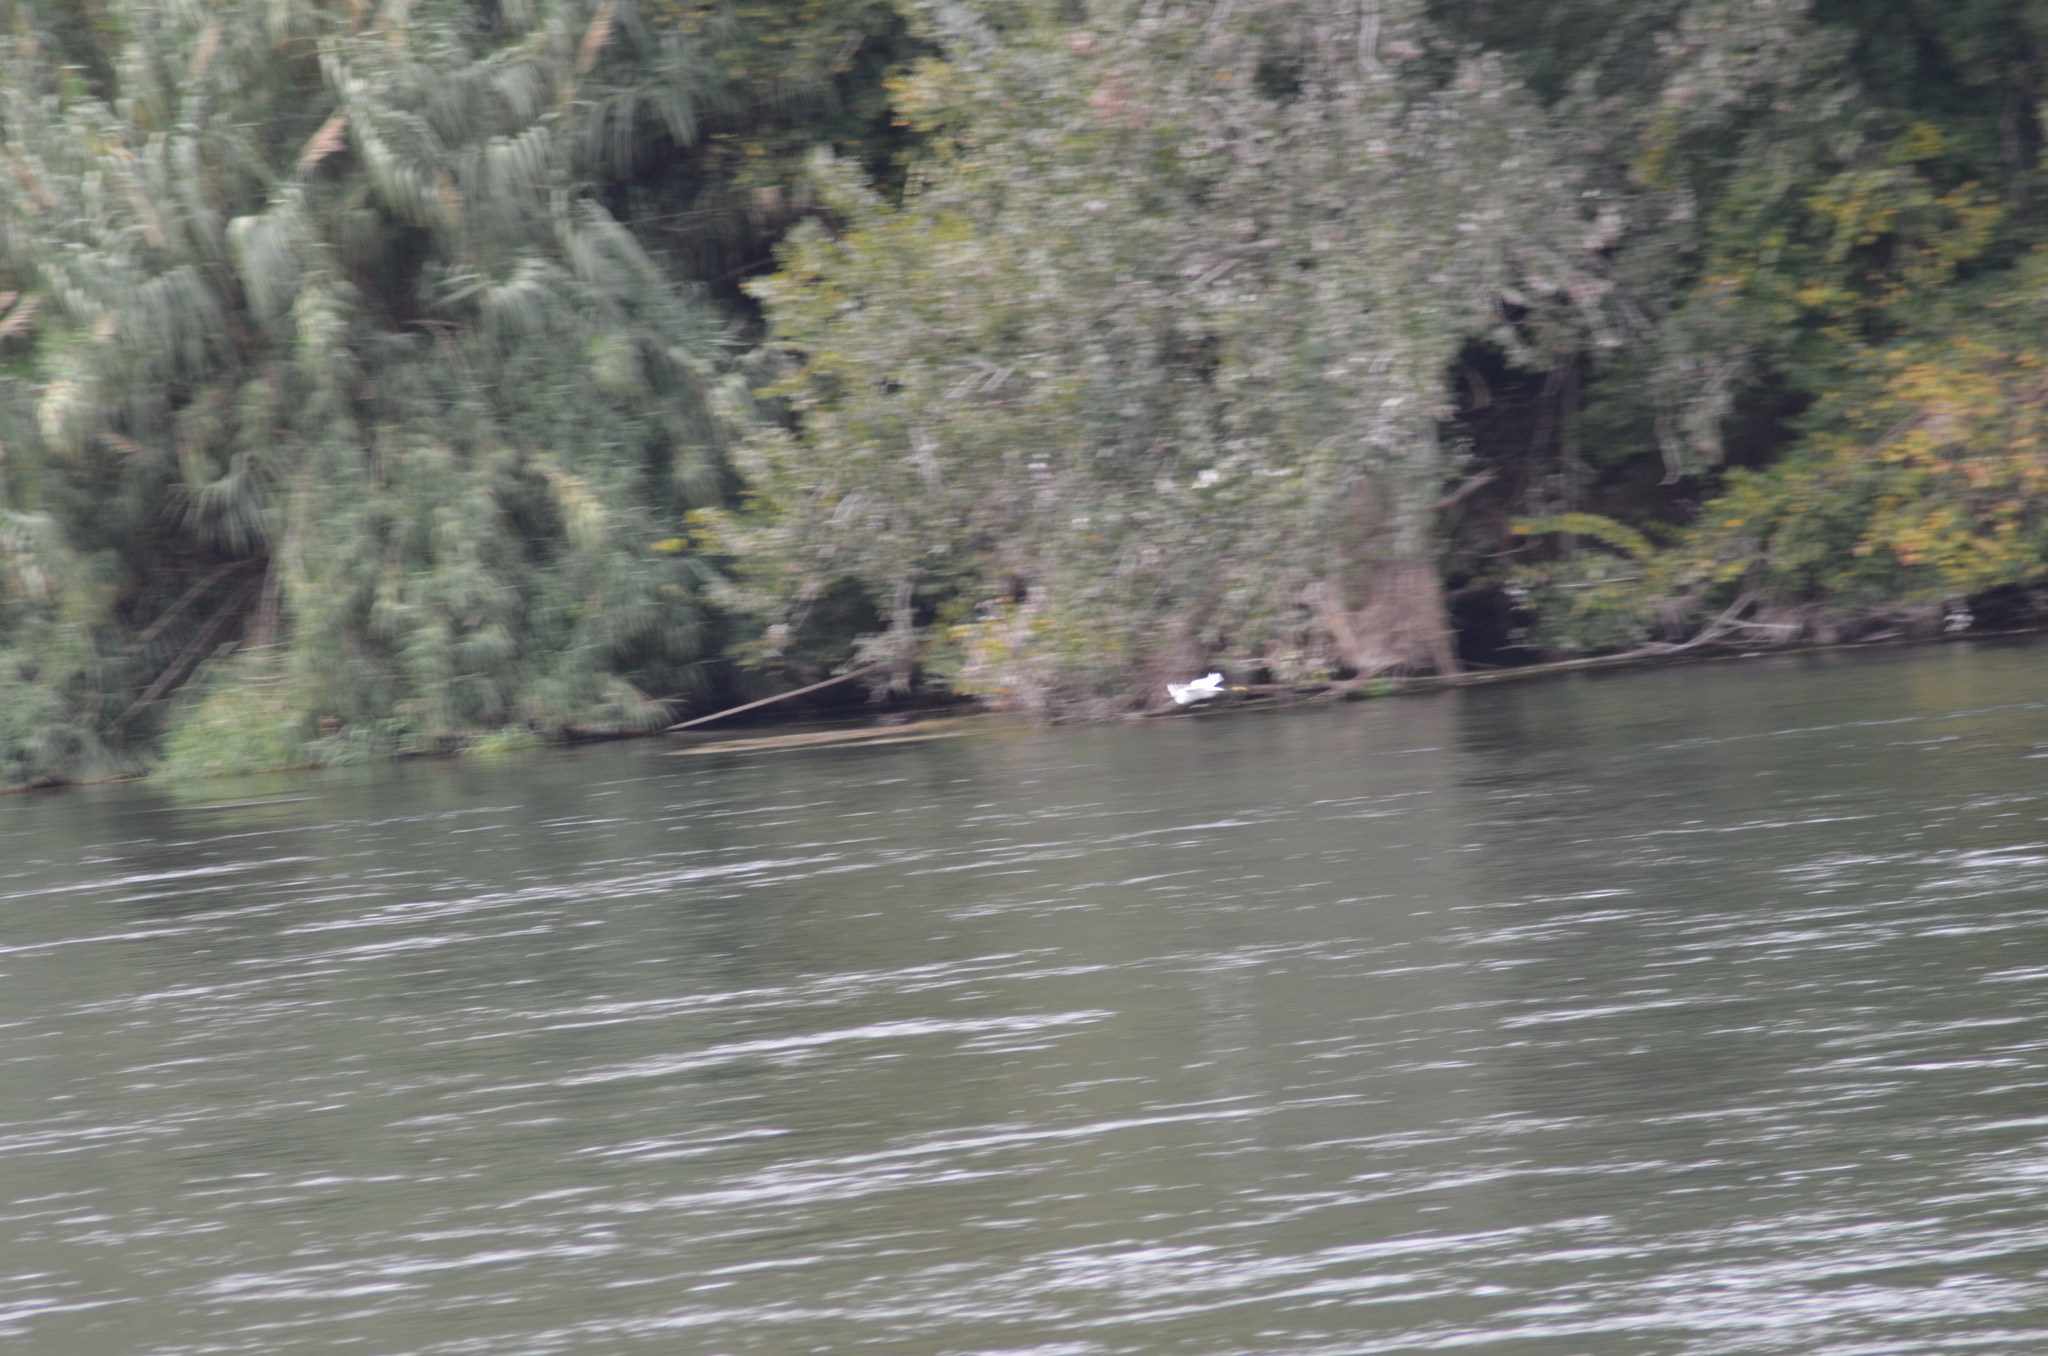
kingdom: Animalia
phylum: Chordata
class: Aves
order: Pelecaniformes
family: Ardeidae
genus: Egretta
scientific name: Egretta garzetta
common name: Little egret
